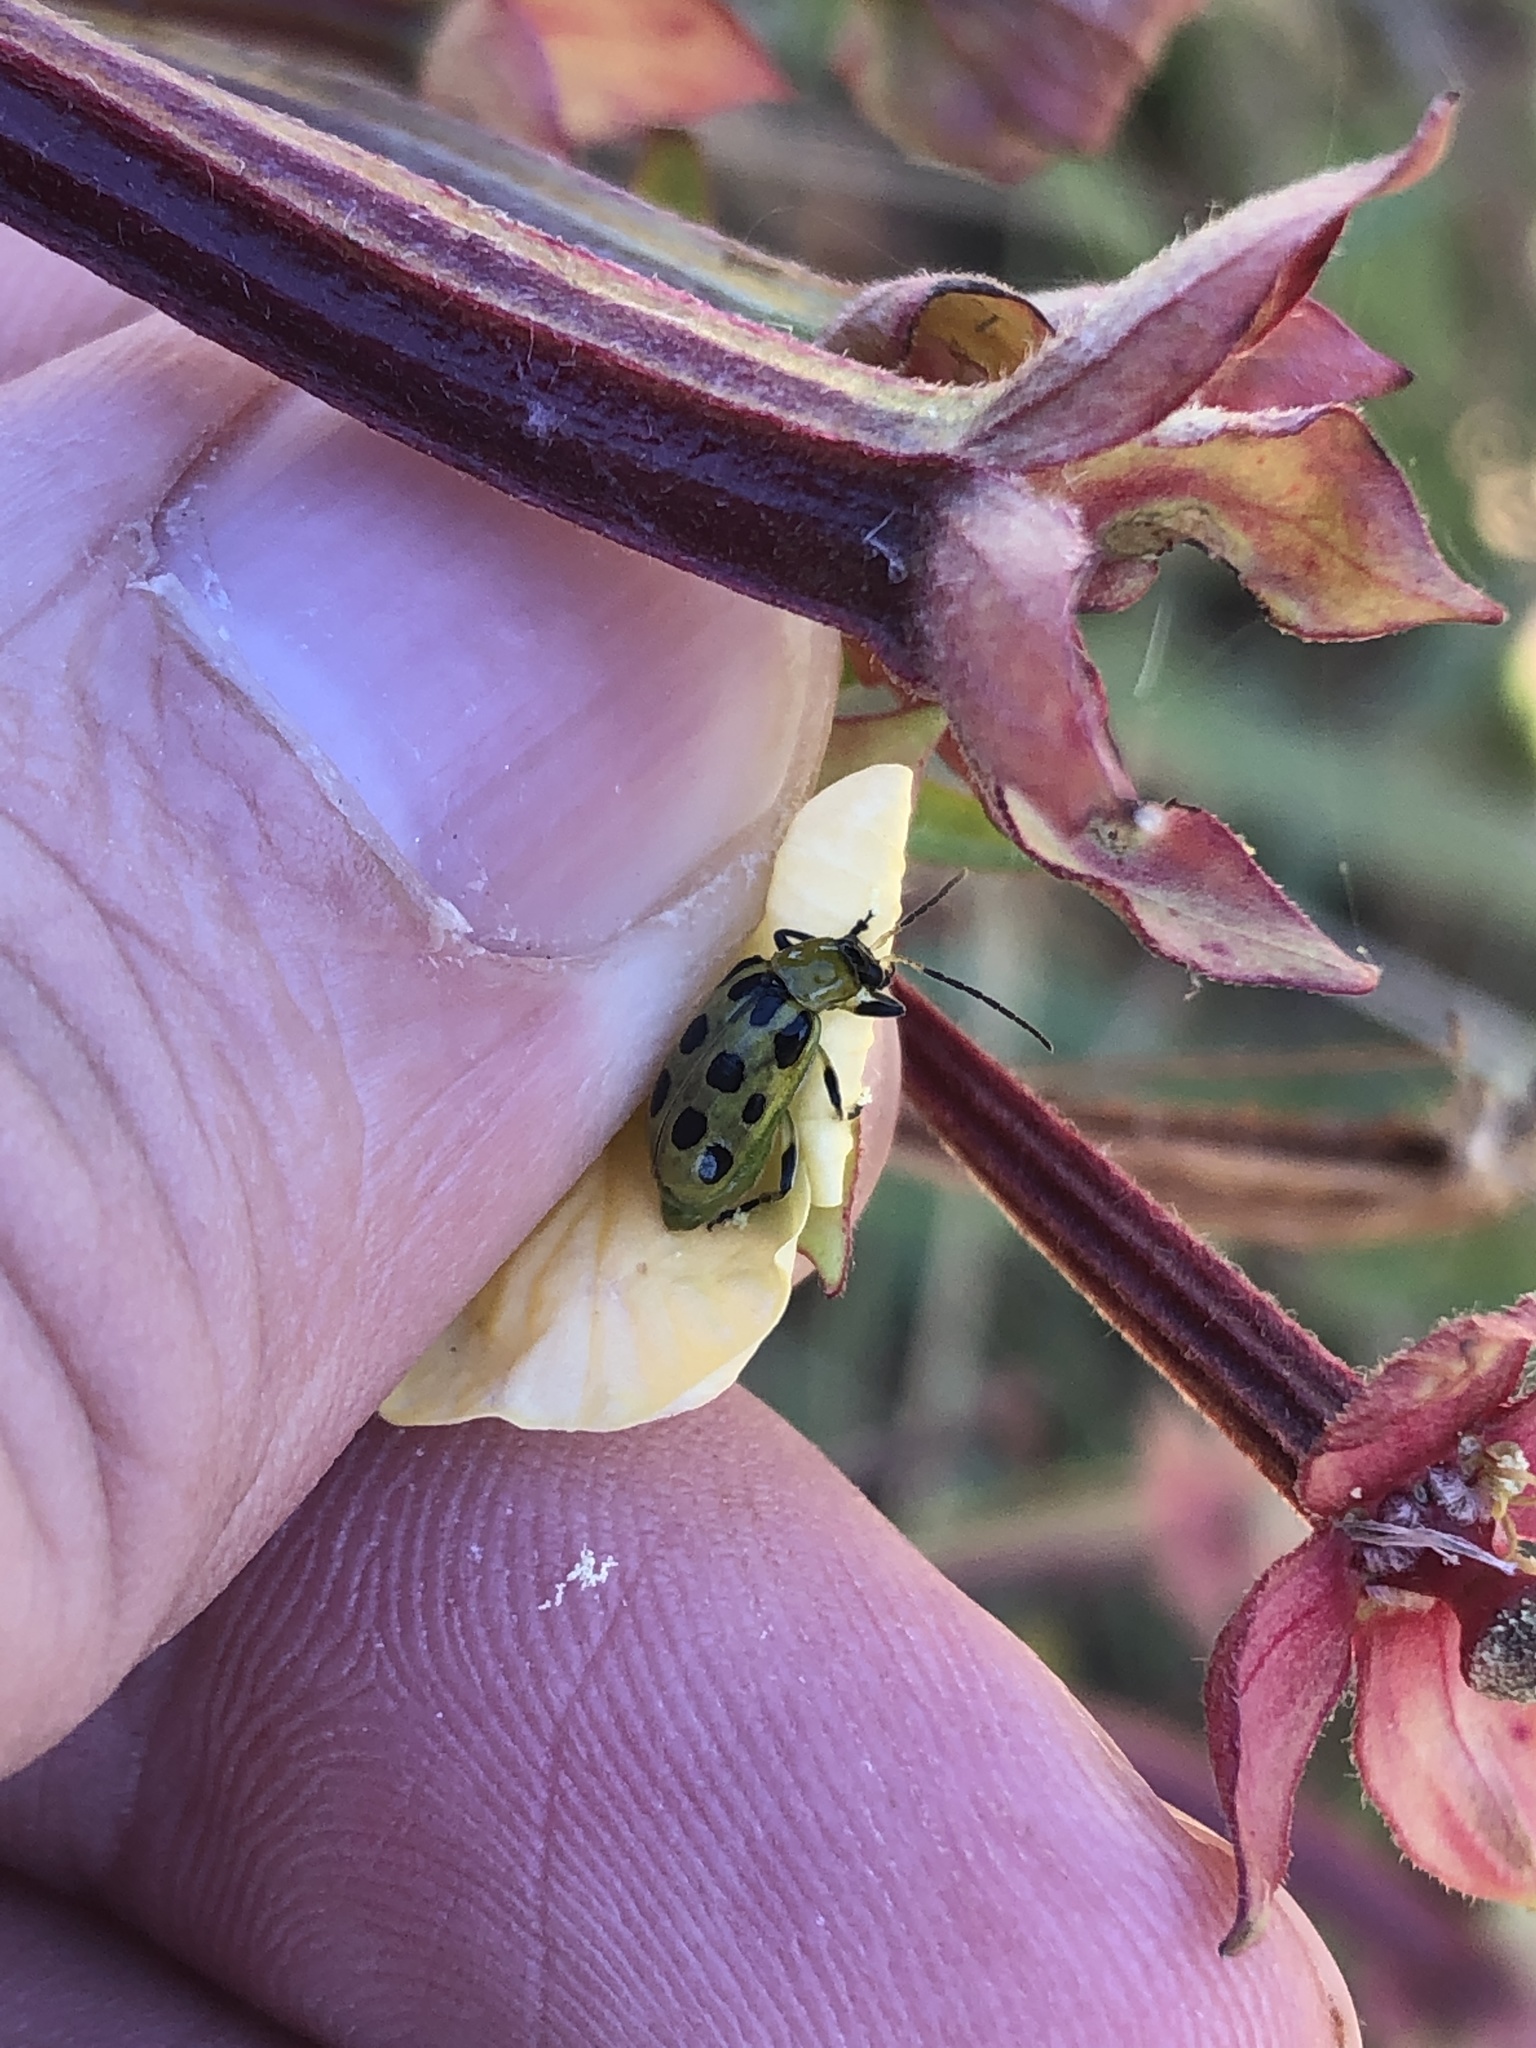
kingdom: Animalia
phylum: Arthropoda
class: Insecta
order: Coleoptera
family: Chrysomelidae
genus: Diabrotica
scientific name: Diabrotica undecimpunctata
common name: Spotted cucumber beetle
